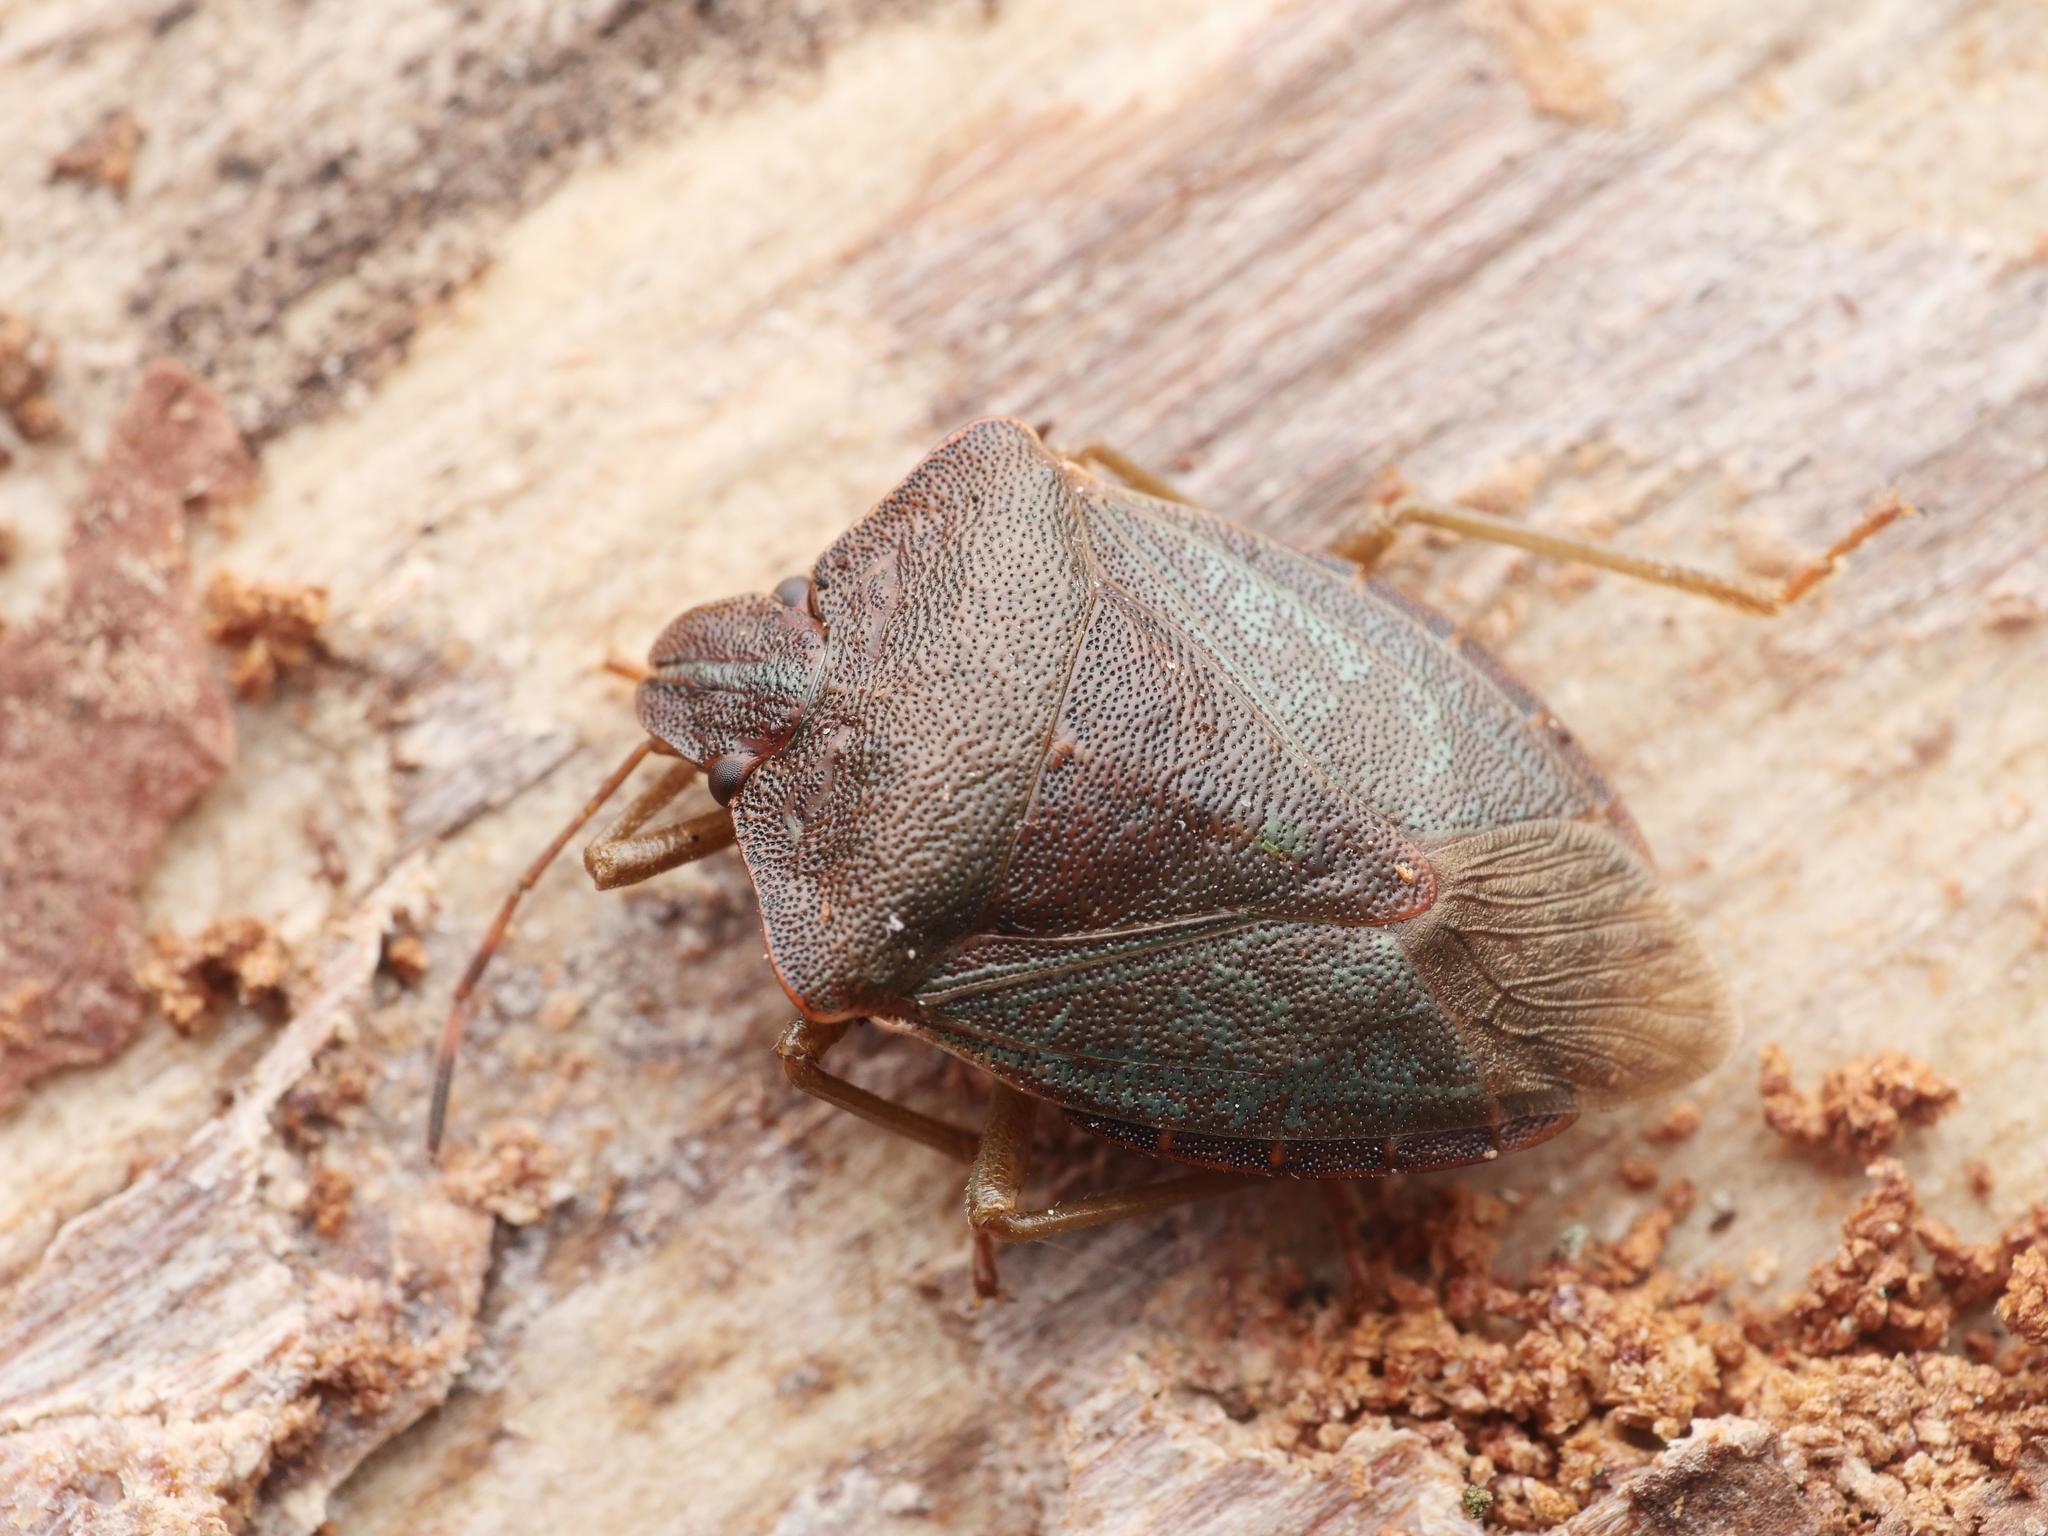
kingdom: Animalia
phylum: Arthropoda
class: Insecta
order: Hemiptera
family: Pentatomidae
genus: Palomena
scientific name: Palomena prasina
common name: Green shieldbug
